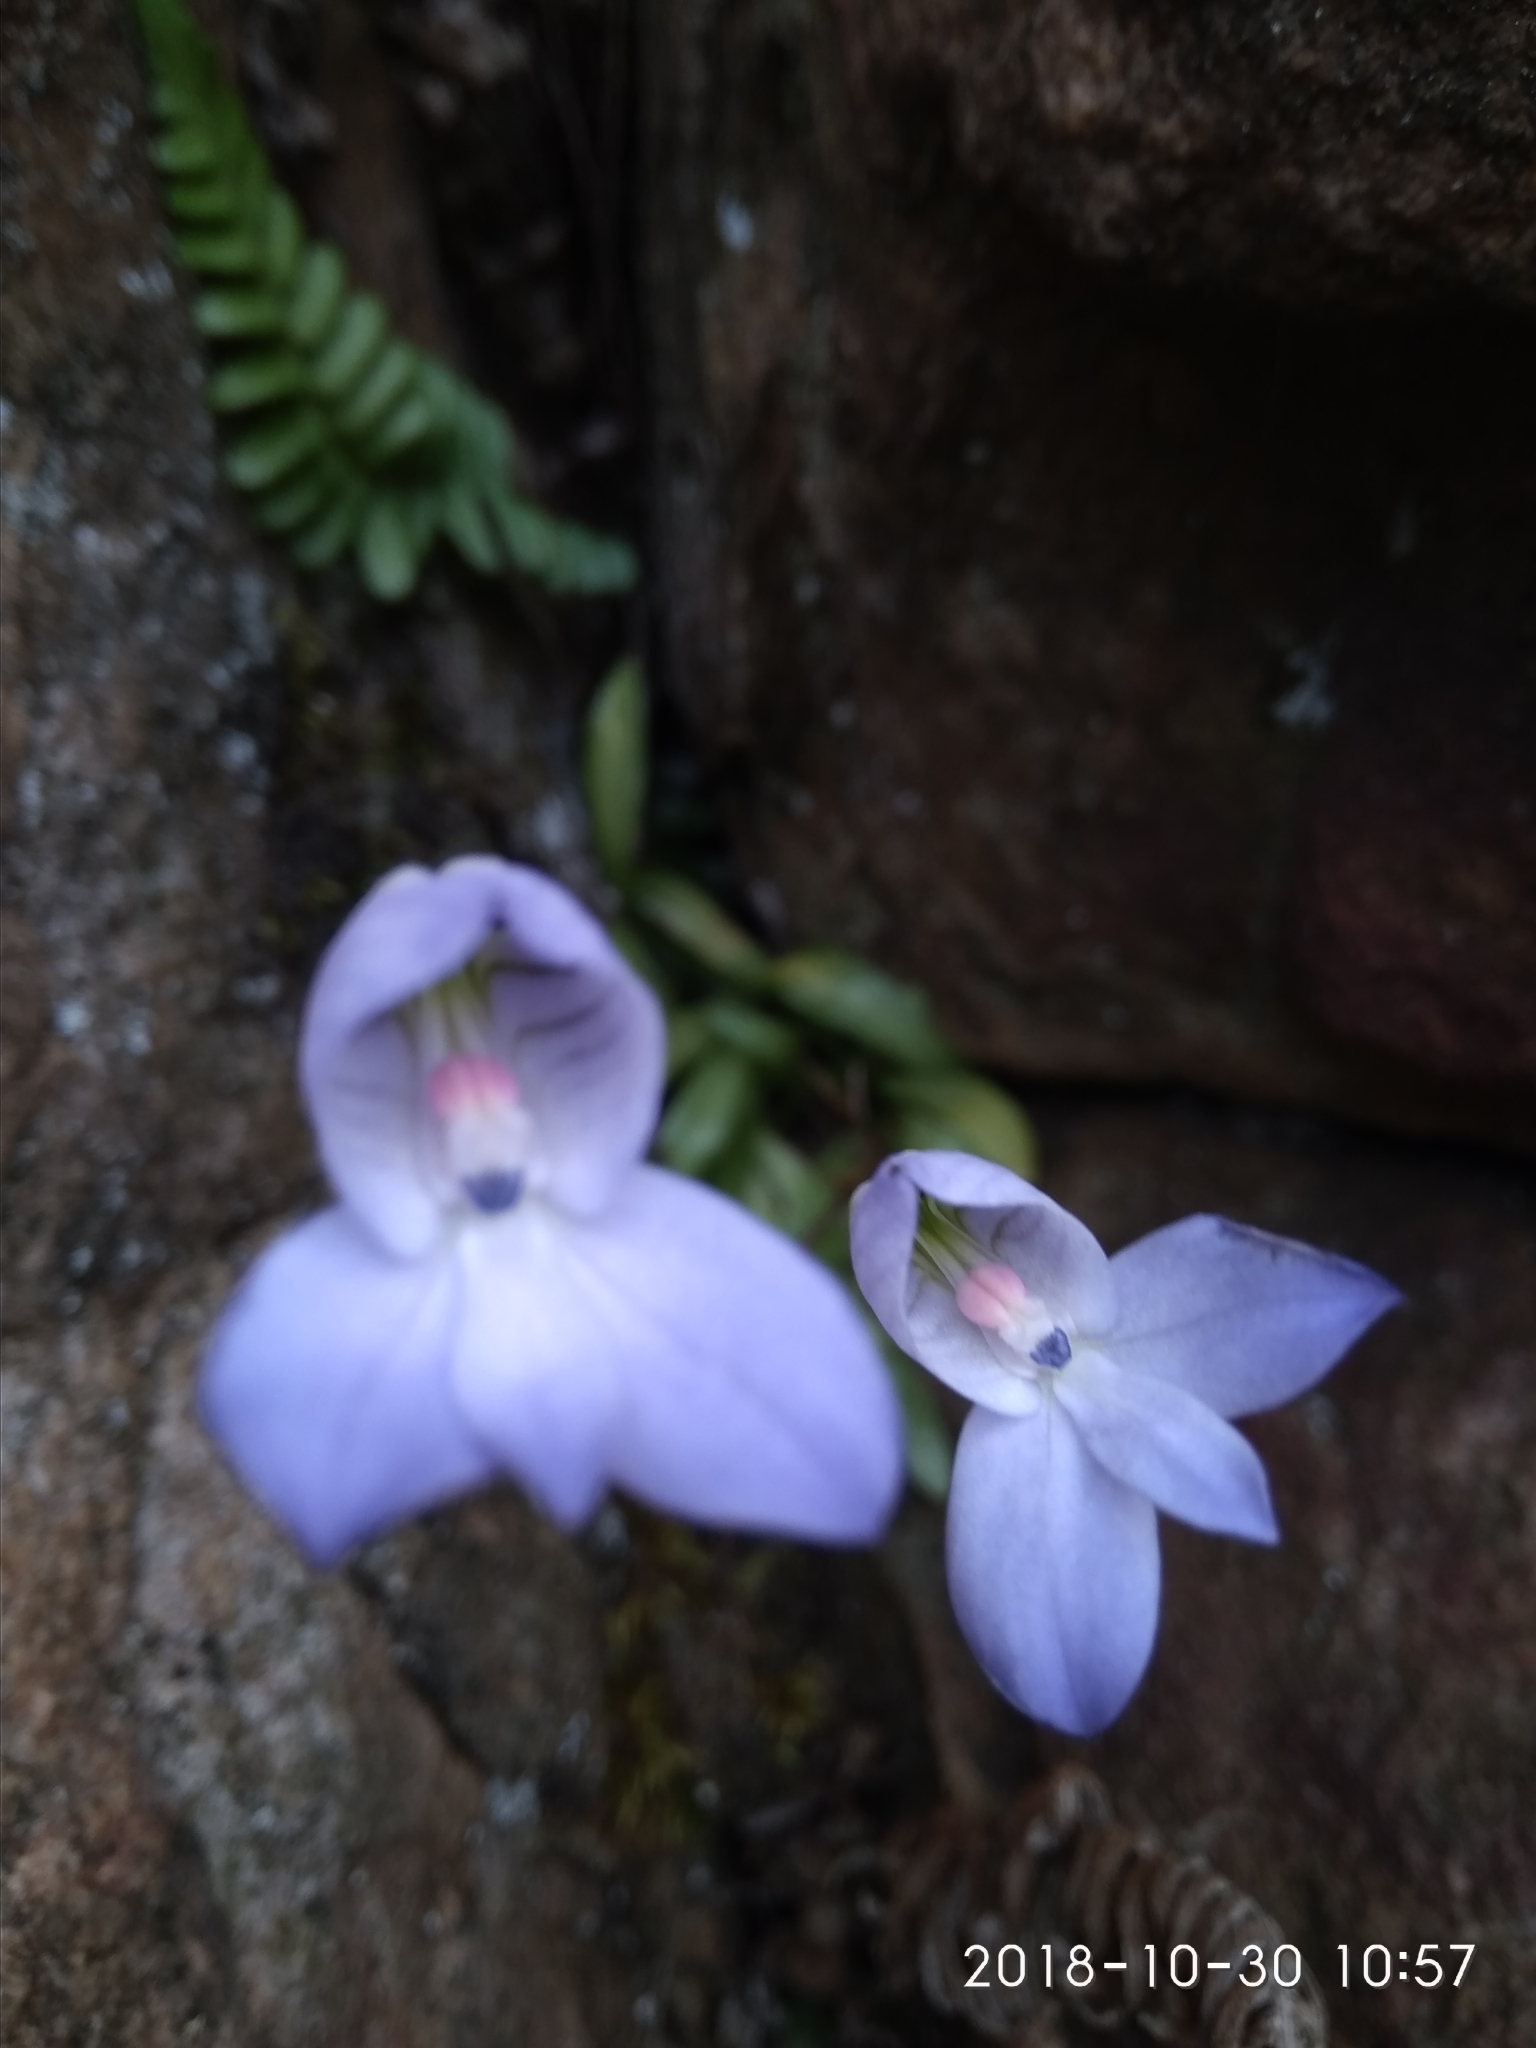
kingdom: Plantae
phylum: Tracheophyta
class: Liliopsida
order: Asparagales
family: Orchidaceae
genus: Disa
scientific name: Disa maculata
